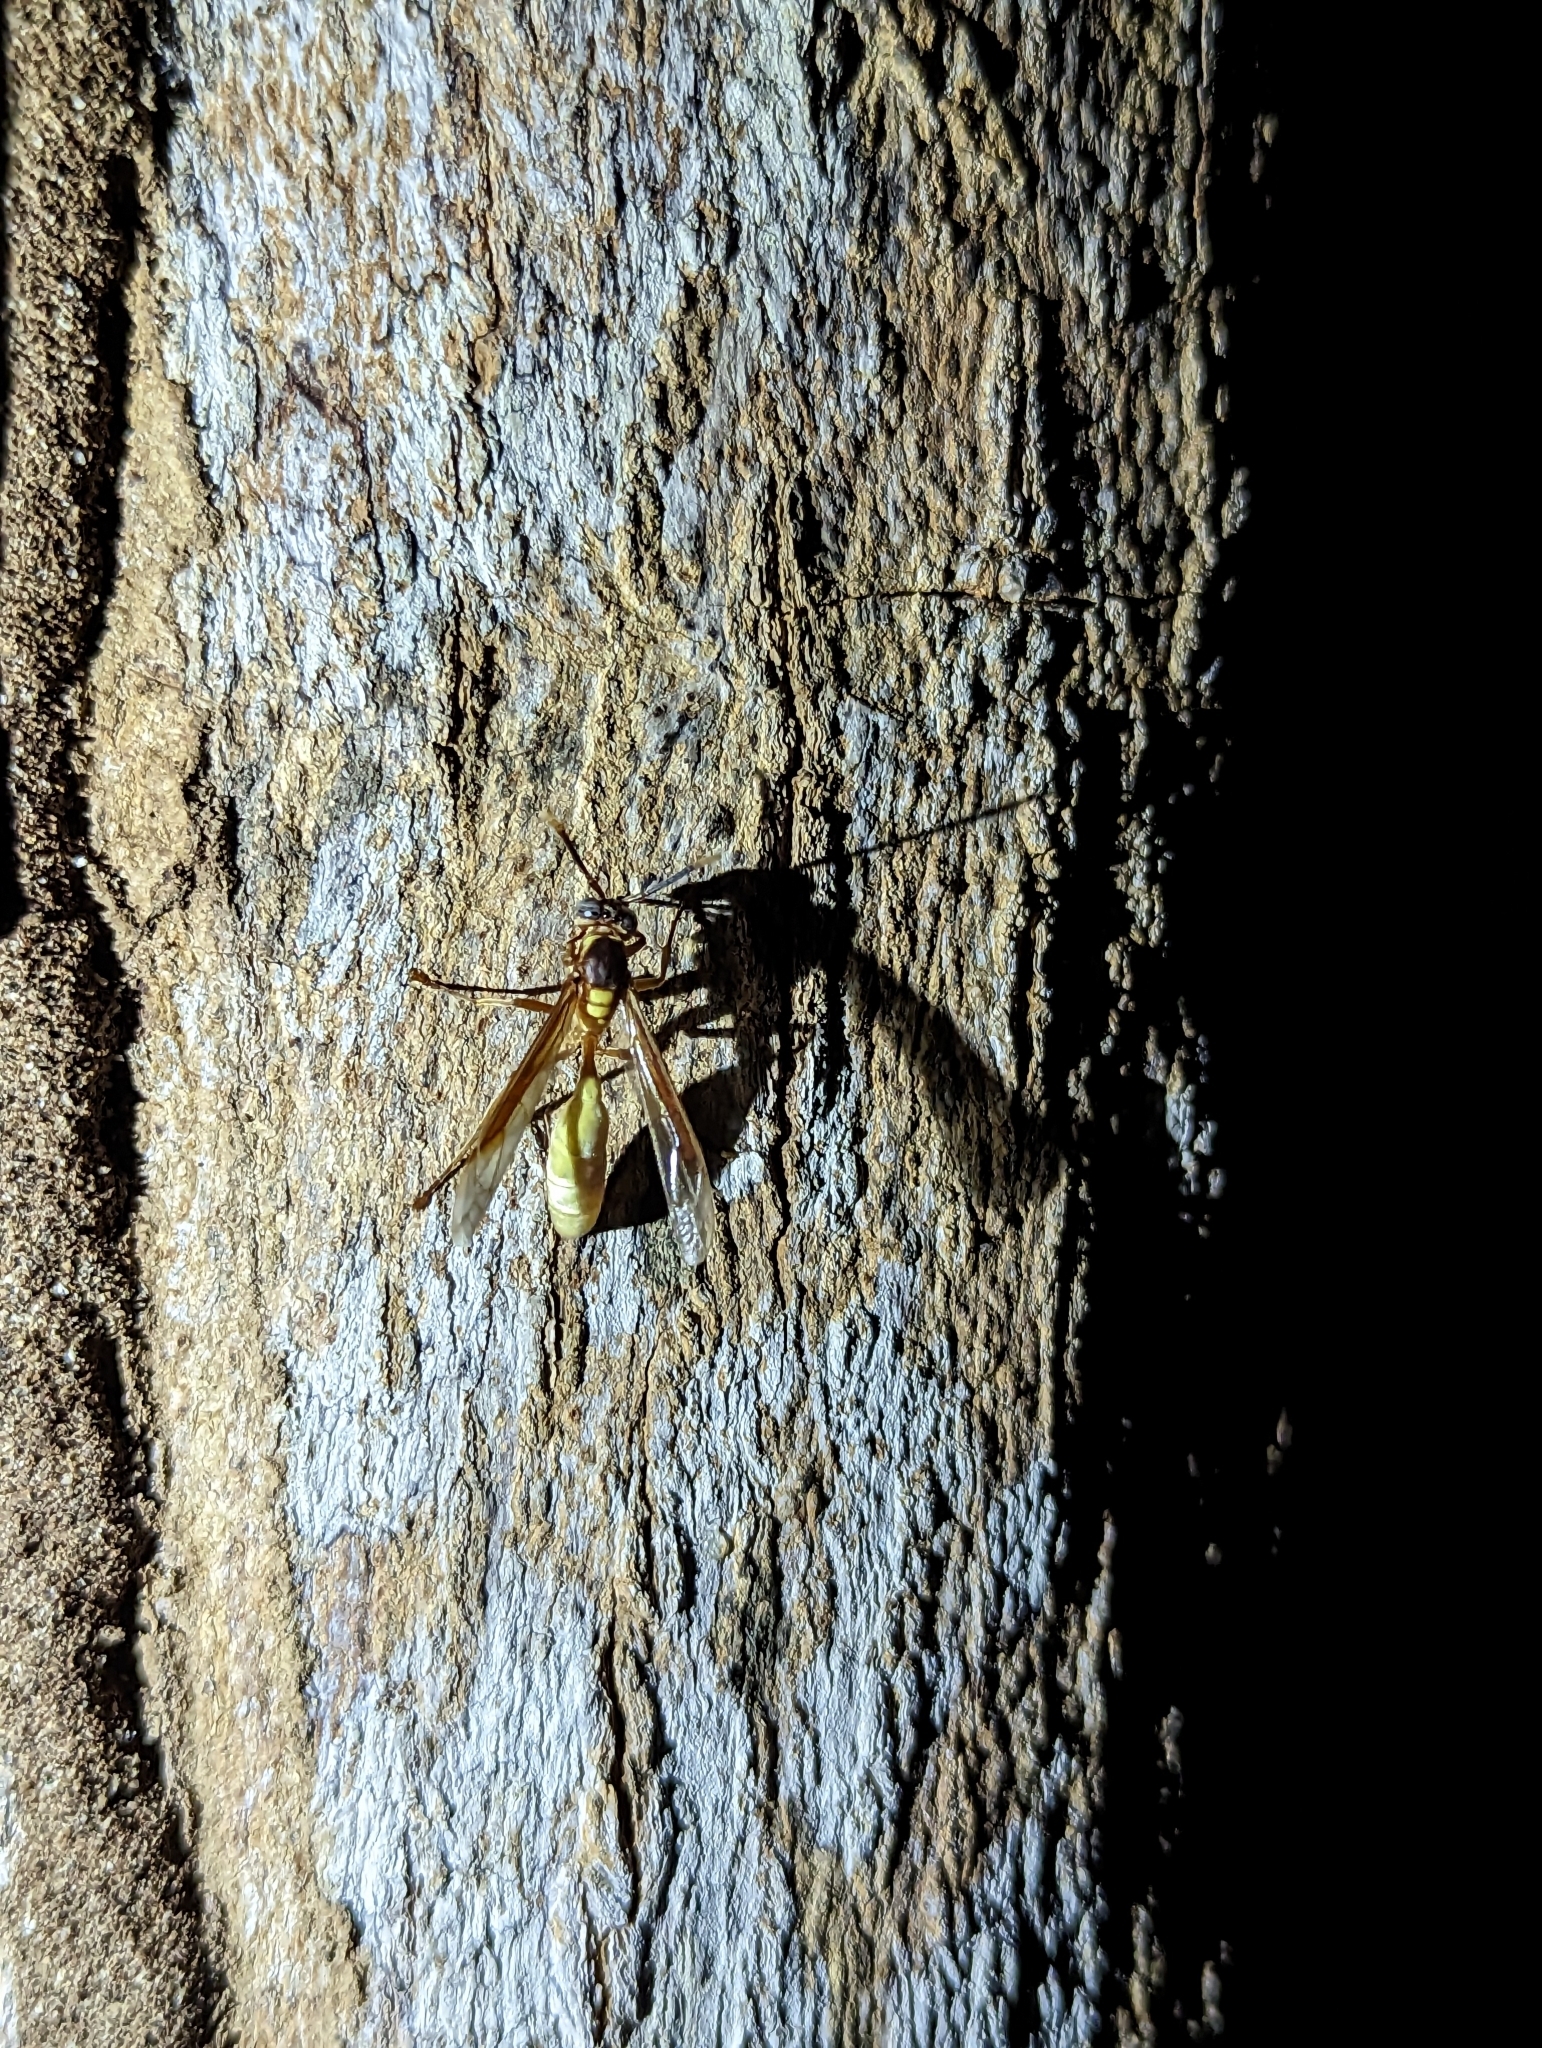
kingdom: Animalia
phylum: Arthropoda
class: Insecta
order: Hymenoptera
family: Vespidae
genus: Apoica
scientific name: Apoica pallens
